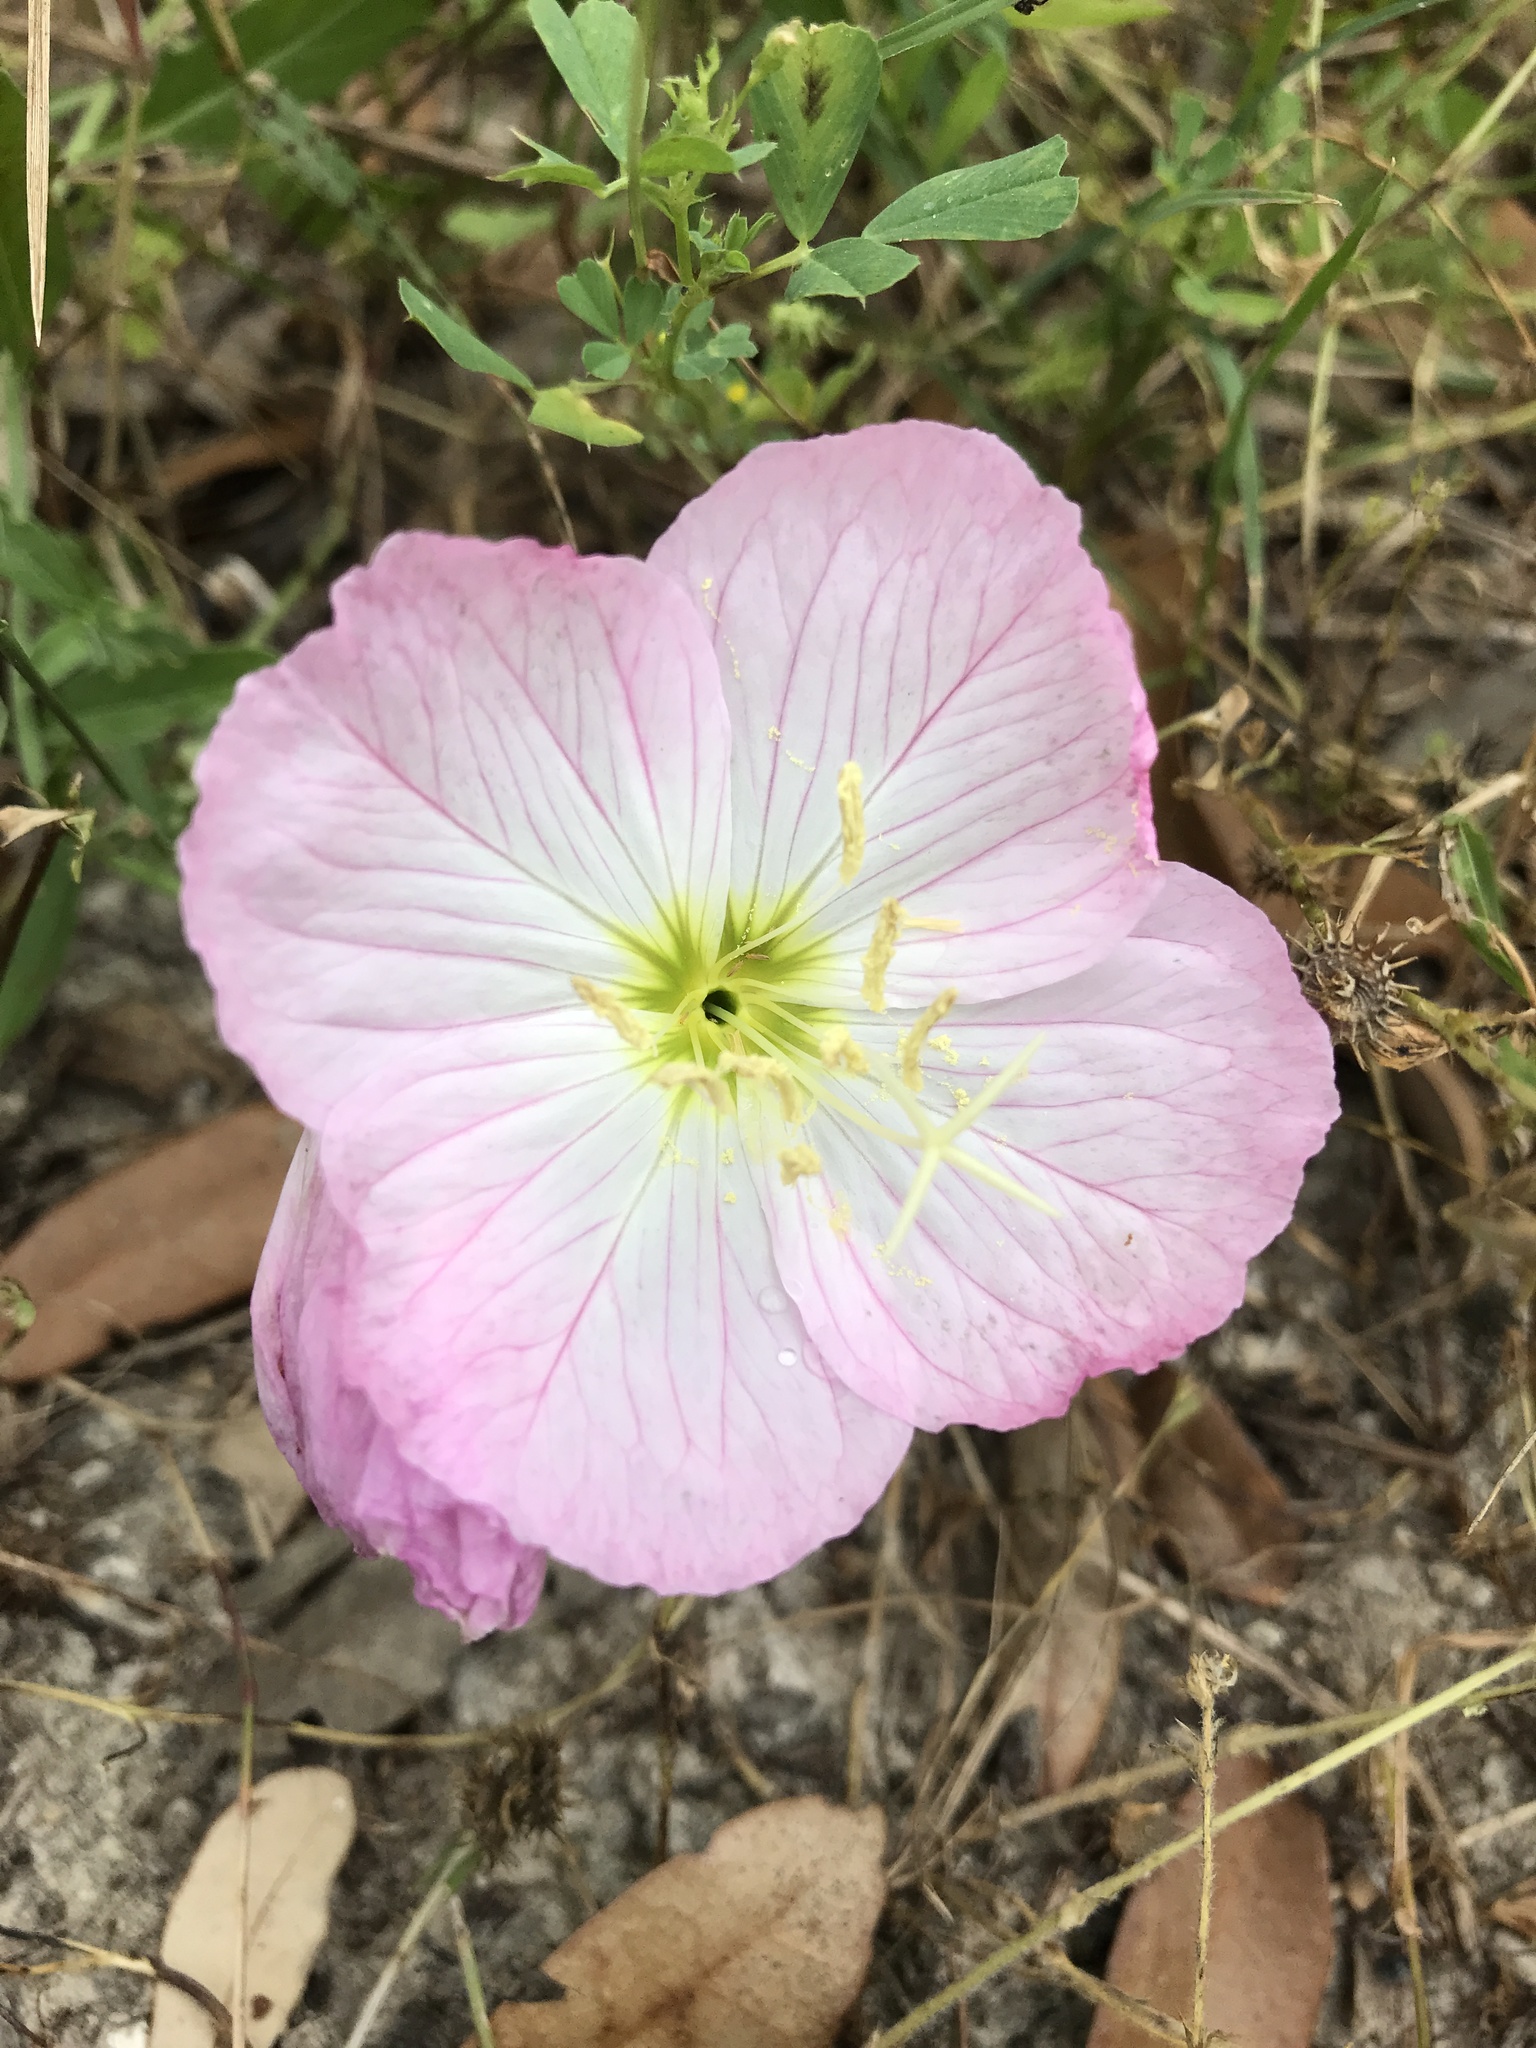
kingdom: Plantae
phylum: Tracheophyta
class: Magnoliopsida
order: Myrtales
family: Onagraceae
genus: Oenothera
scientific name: Oenothera speciosa
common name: White evening-primrose
